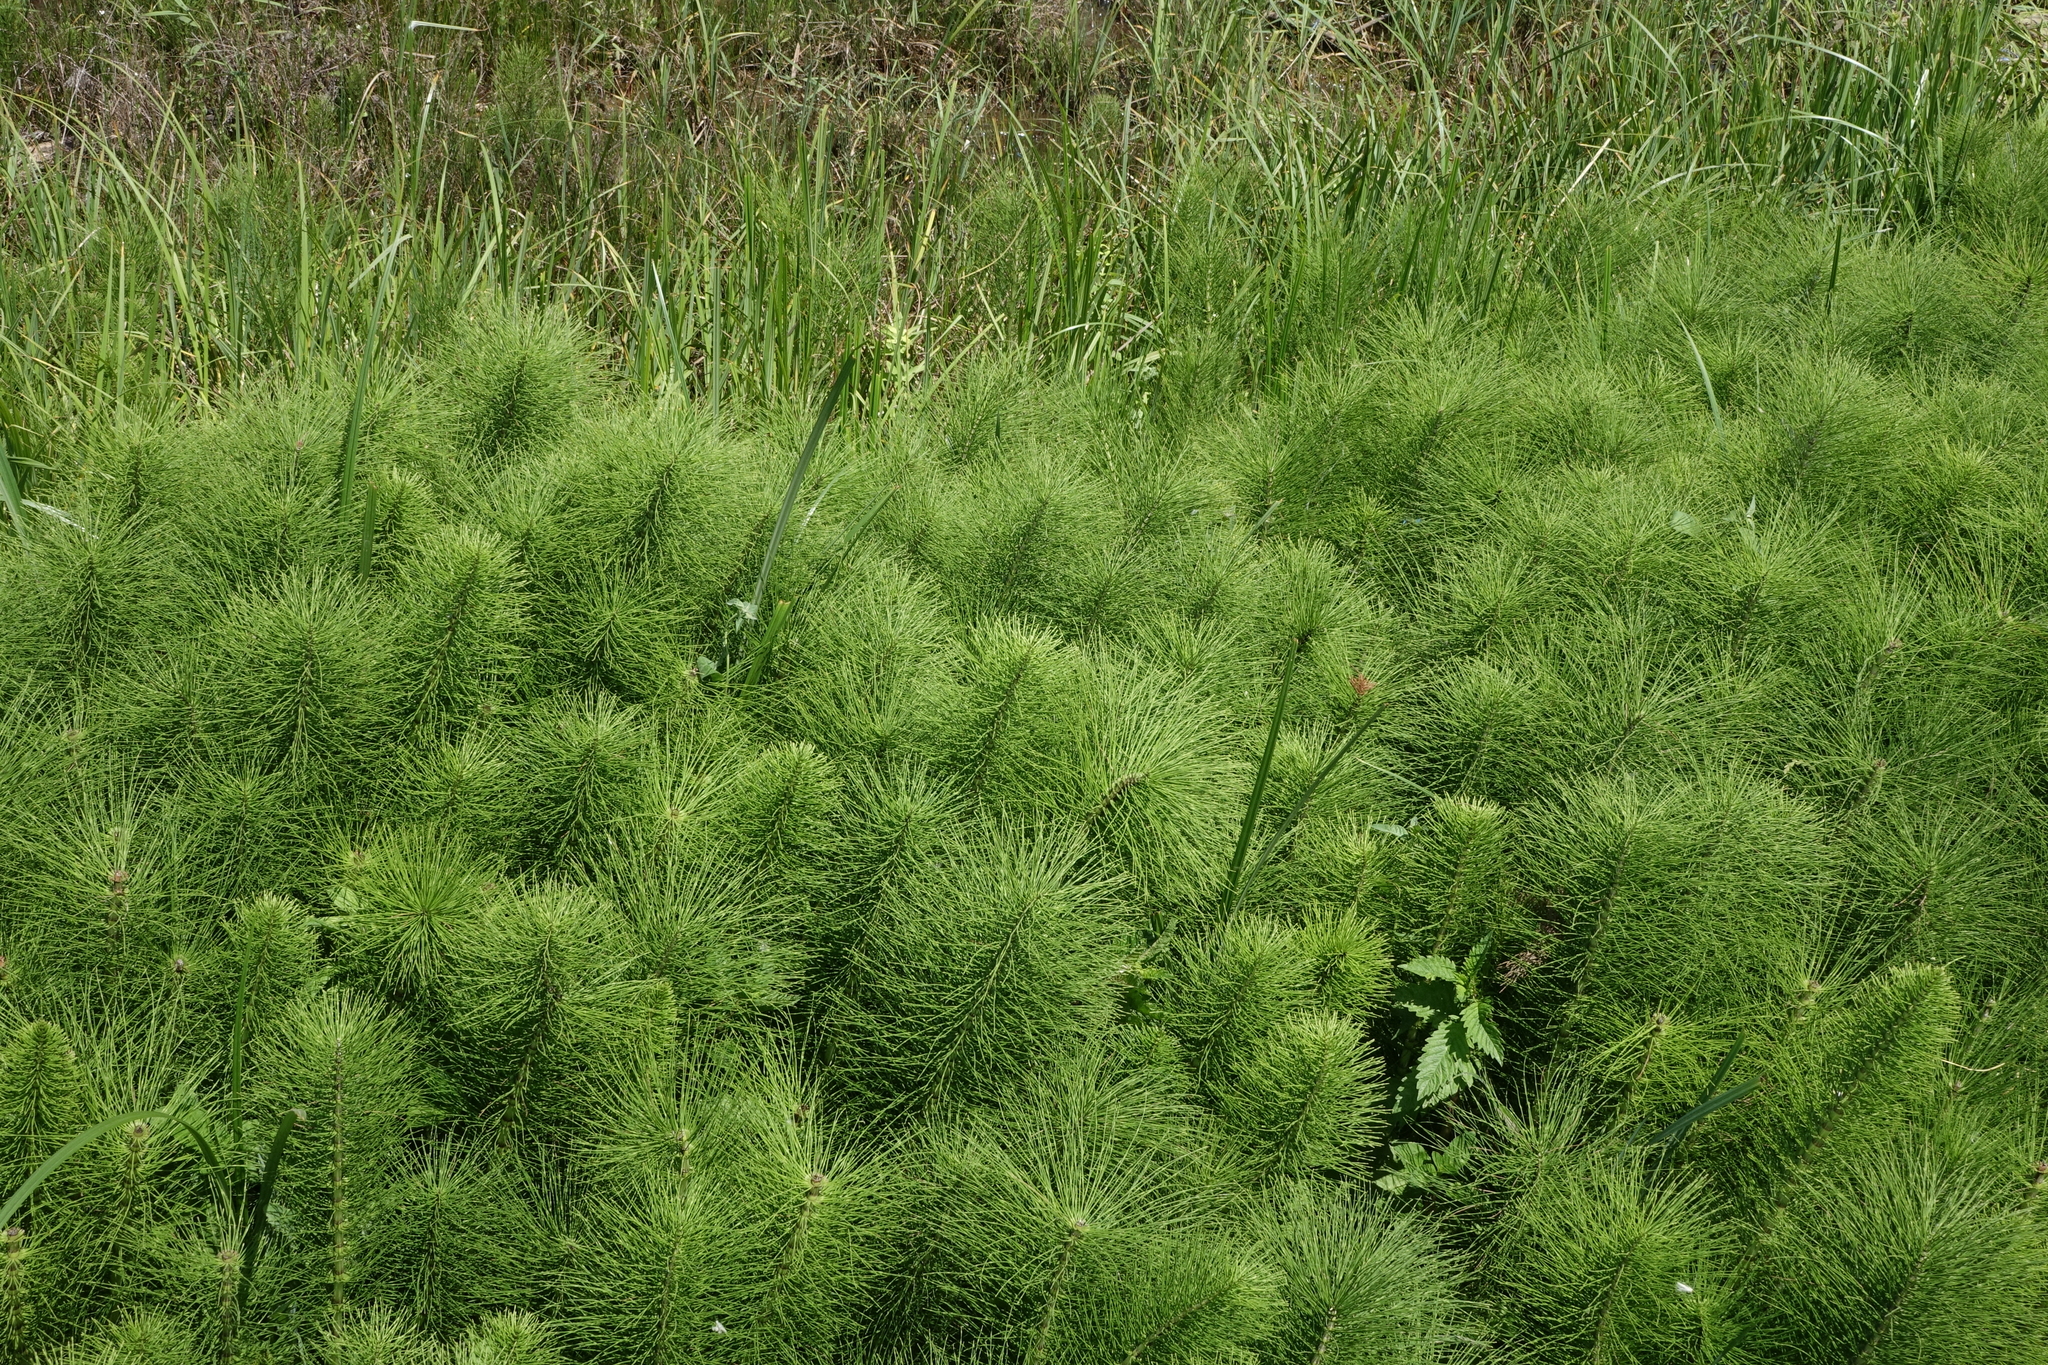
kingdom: Plantae
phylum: Tracheophyta
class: Polypodiopsida
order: Equisetales
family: Equisetaceae
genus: Equisetum
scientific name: Equisetum telmateia
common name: Great horsetail
